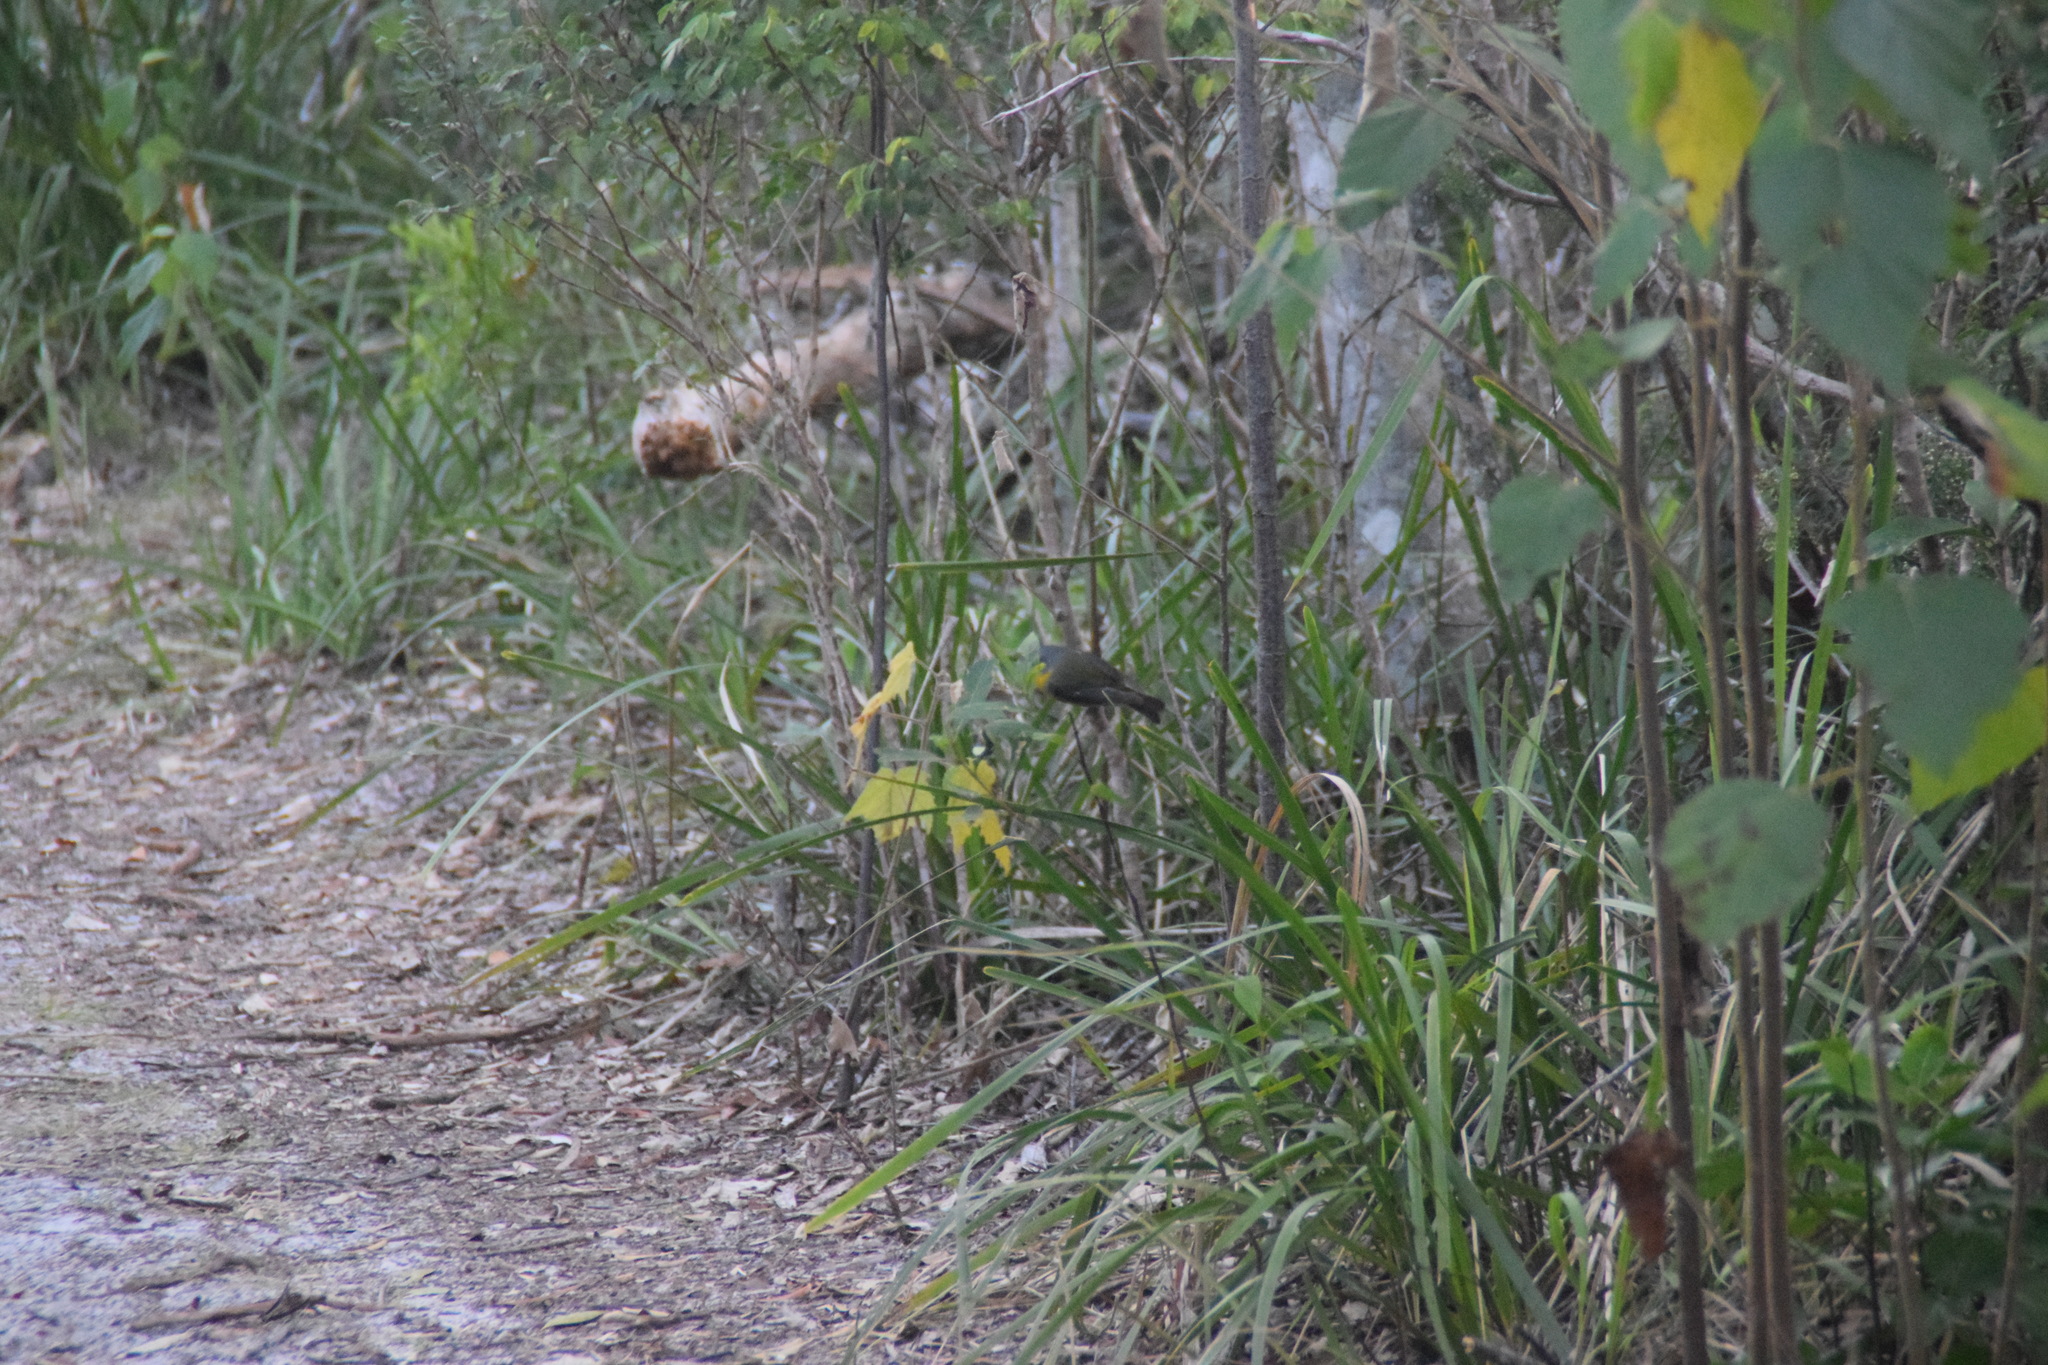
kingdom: Animalia
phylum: Chordata
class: Aves
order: Passeriformes
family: Petroicidae
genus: Eopsaltria
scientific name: Eopsaltria australis
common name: Eastern yellow robin
